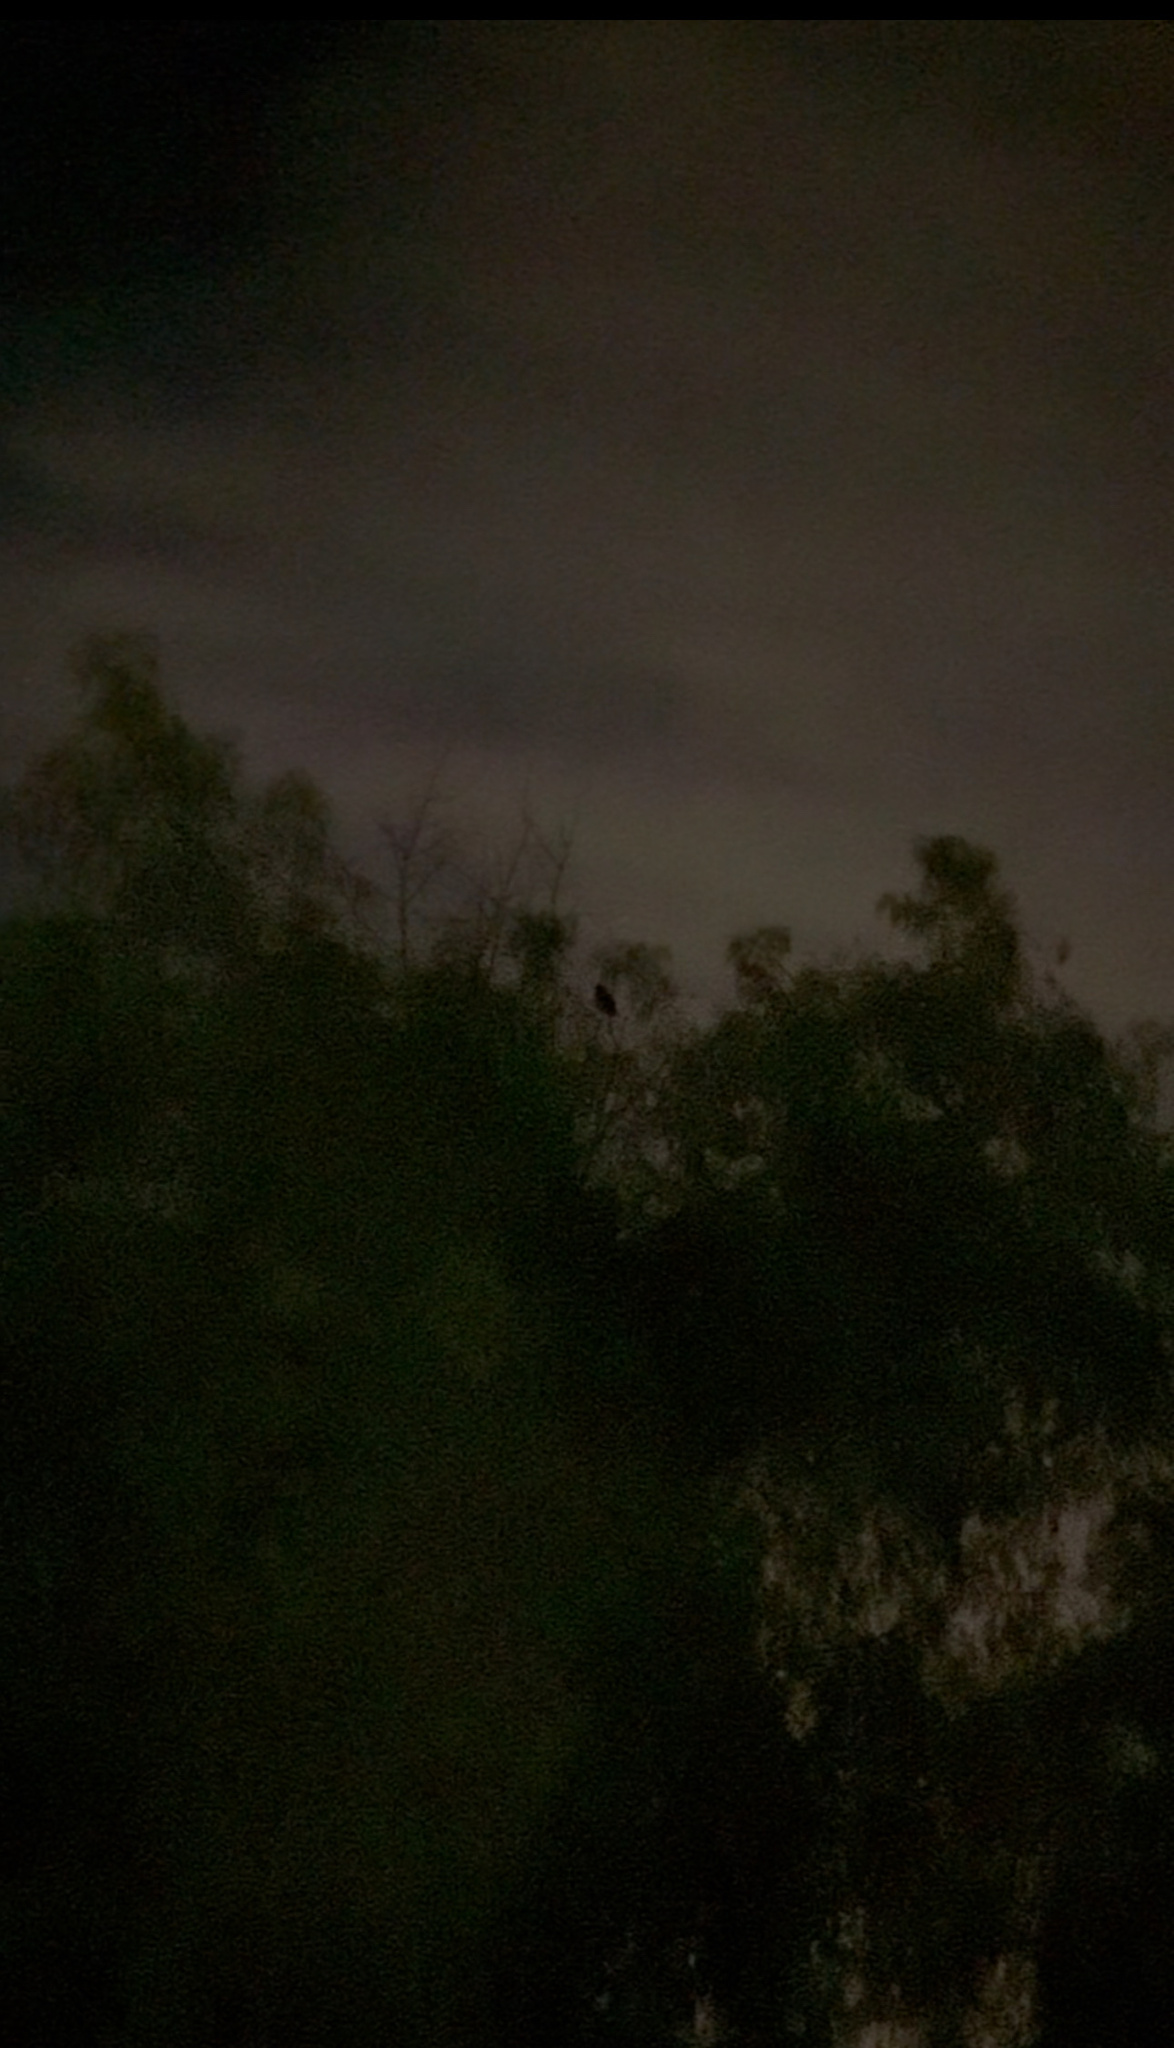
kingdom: Animalia
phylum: Chordata
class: Aves
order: Strigiformes
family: Strigidae
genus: Bubo
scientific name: Bubo virginianus
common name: Great horned owl
